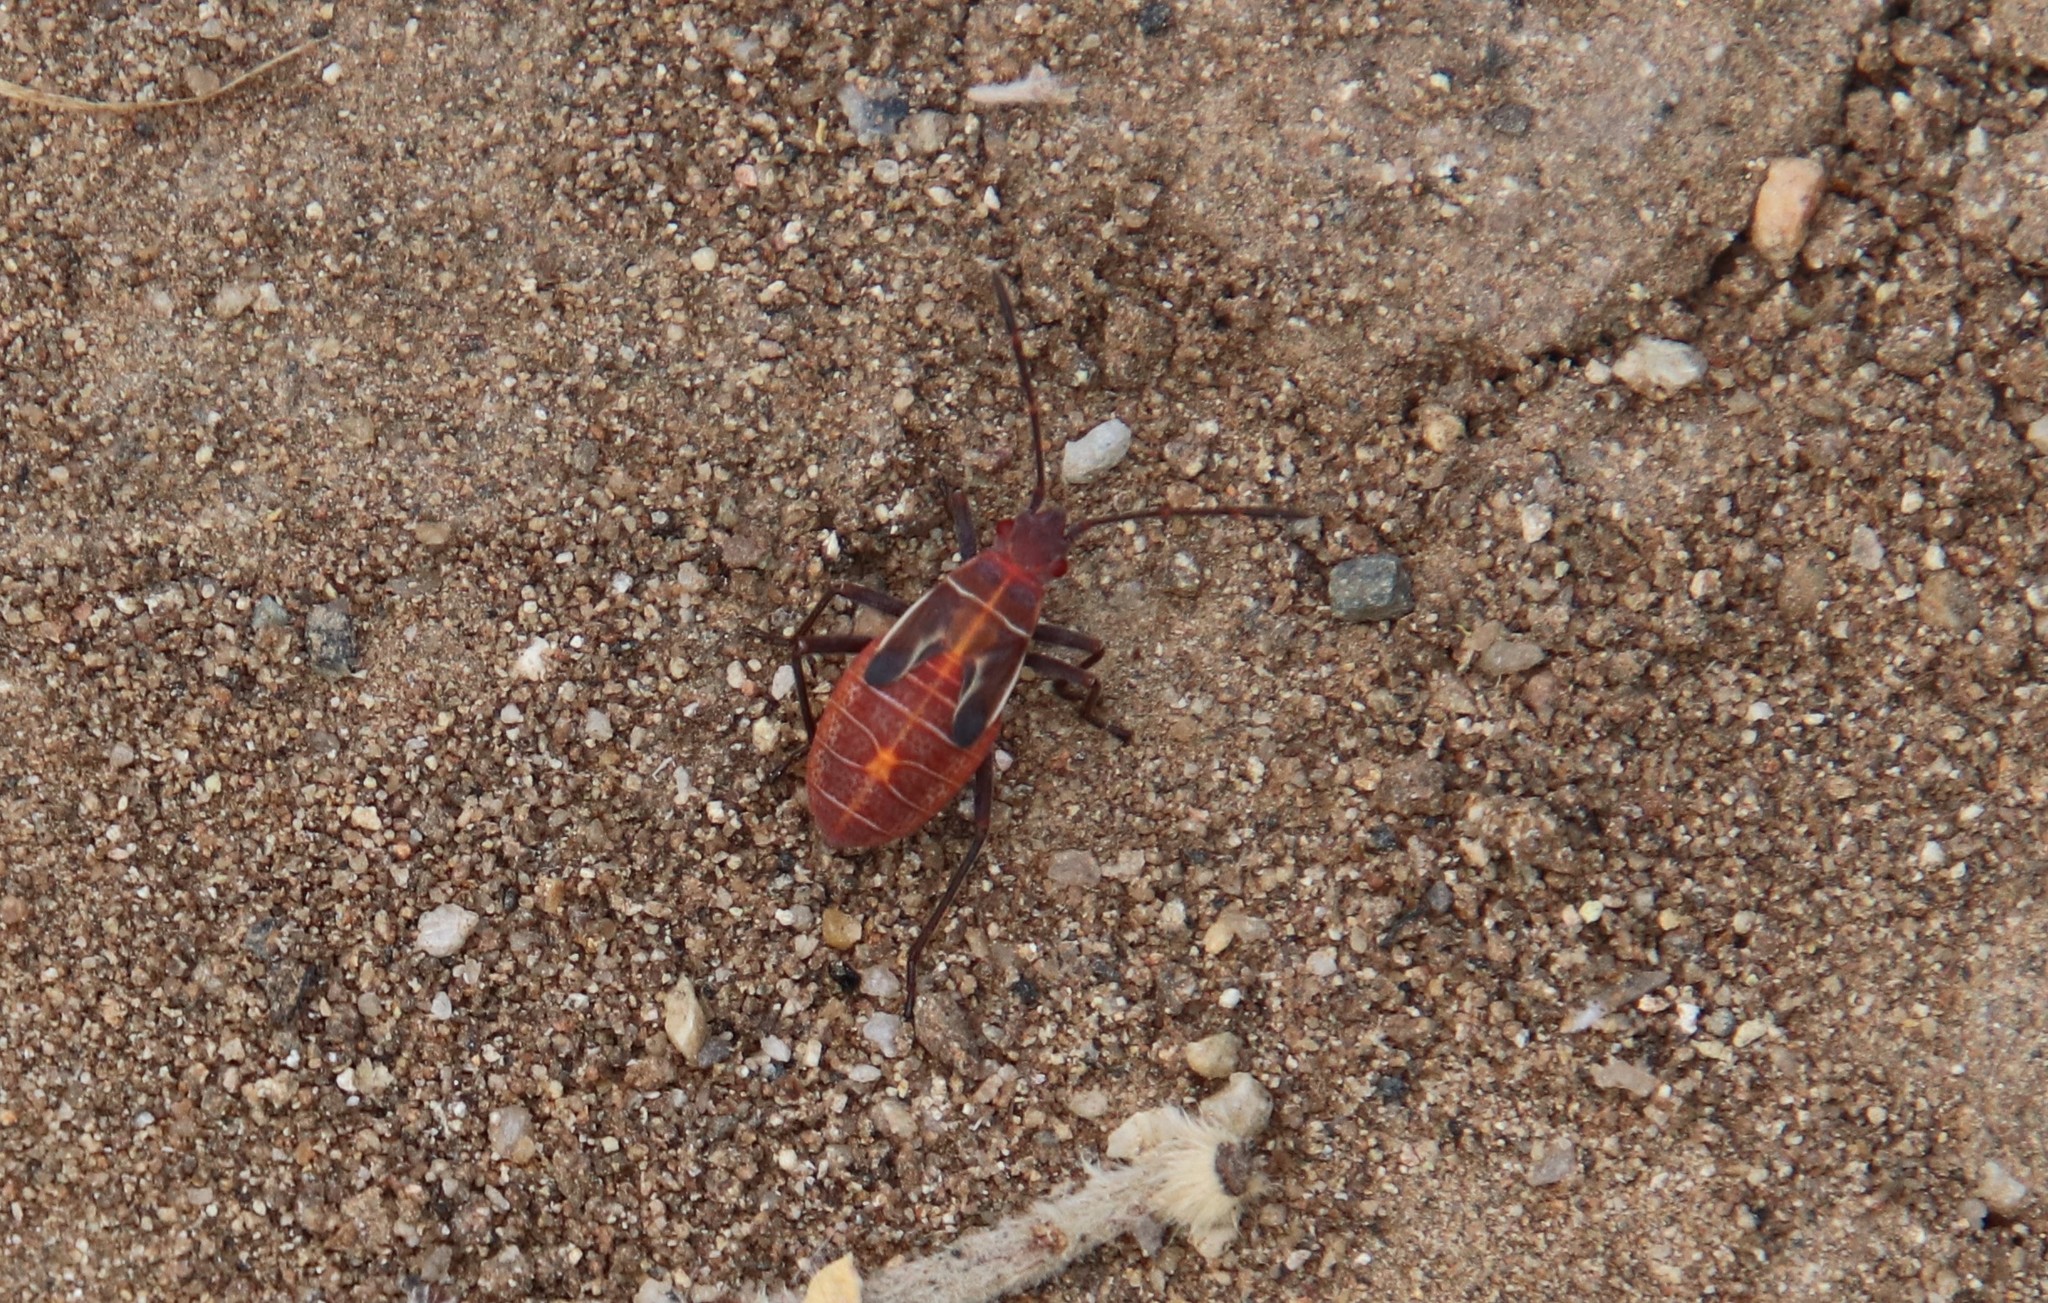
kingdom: Animalia
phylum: Arthropoda
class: Insecta
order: Hemiptera
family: Rhopalidae
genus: Boisea
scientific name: Boisea rubrolineata
